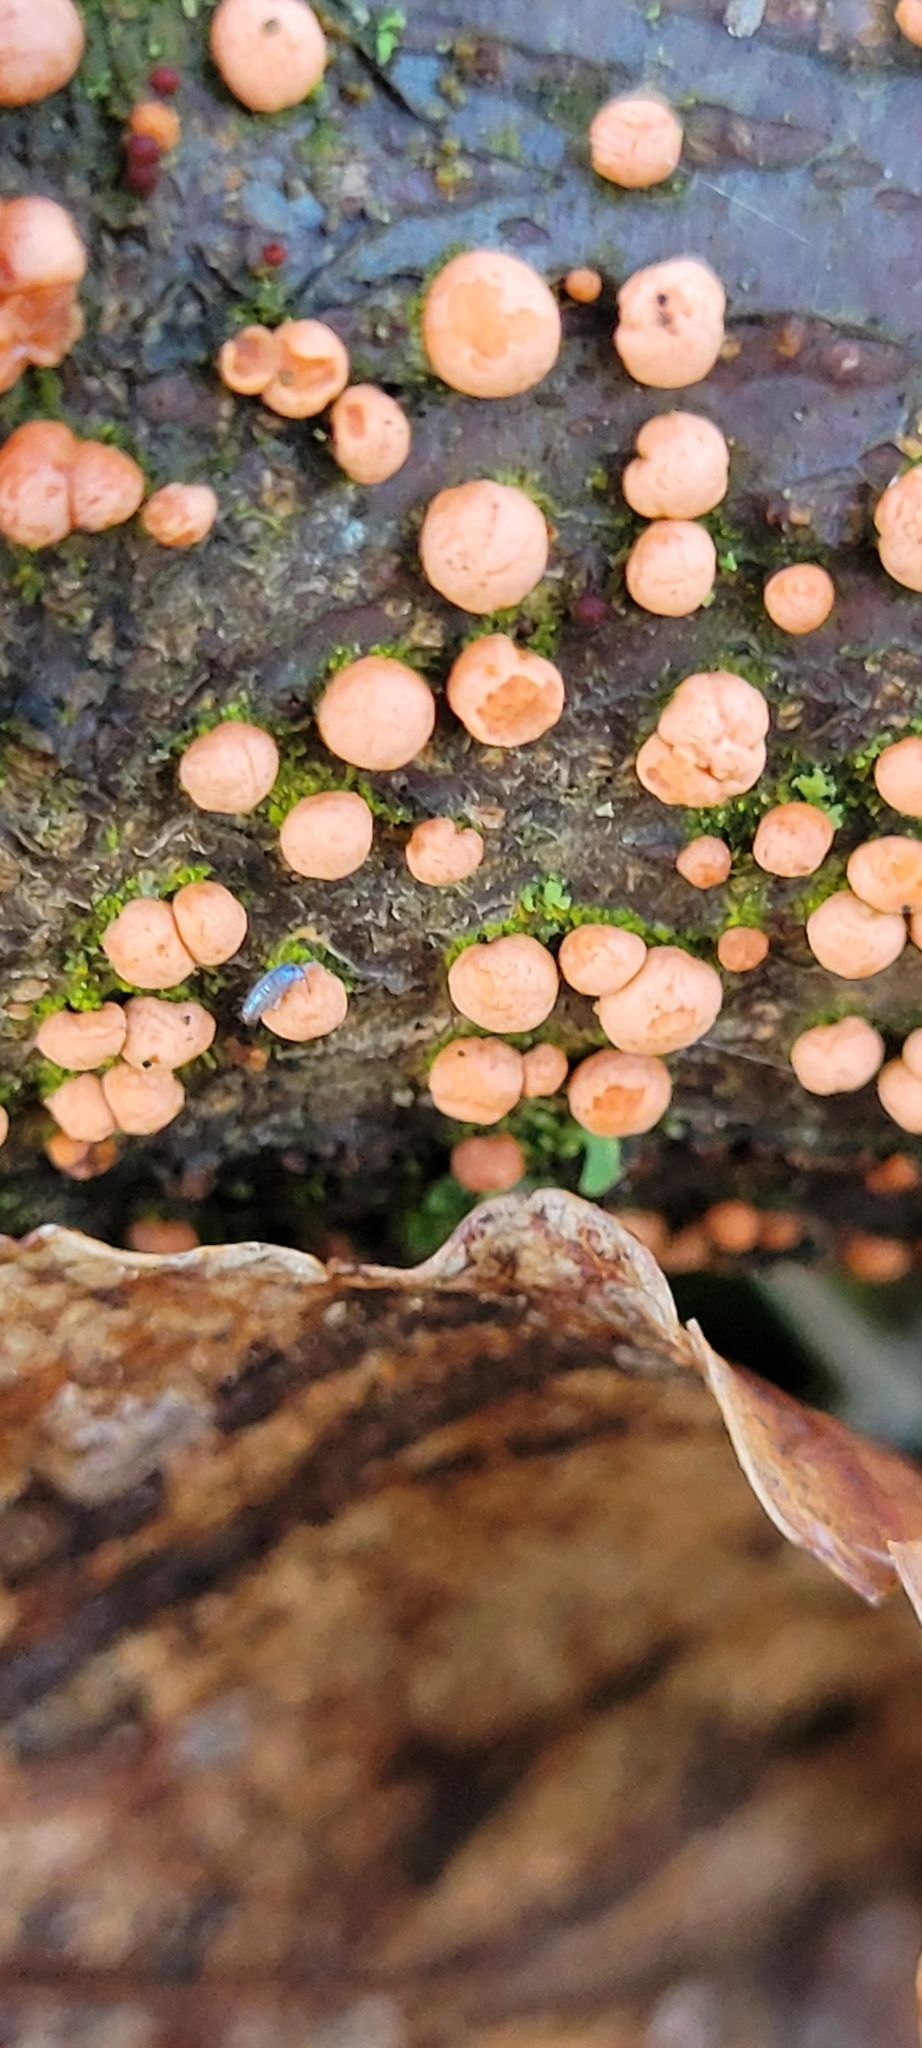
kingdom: Fungi
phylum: Ascomycota
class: Sordariomycetes
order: Hypocreales
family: Nectriaceae
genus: Nectria
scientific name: Nectria cinnabarina
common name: Coral spot
